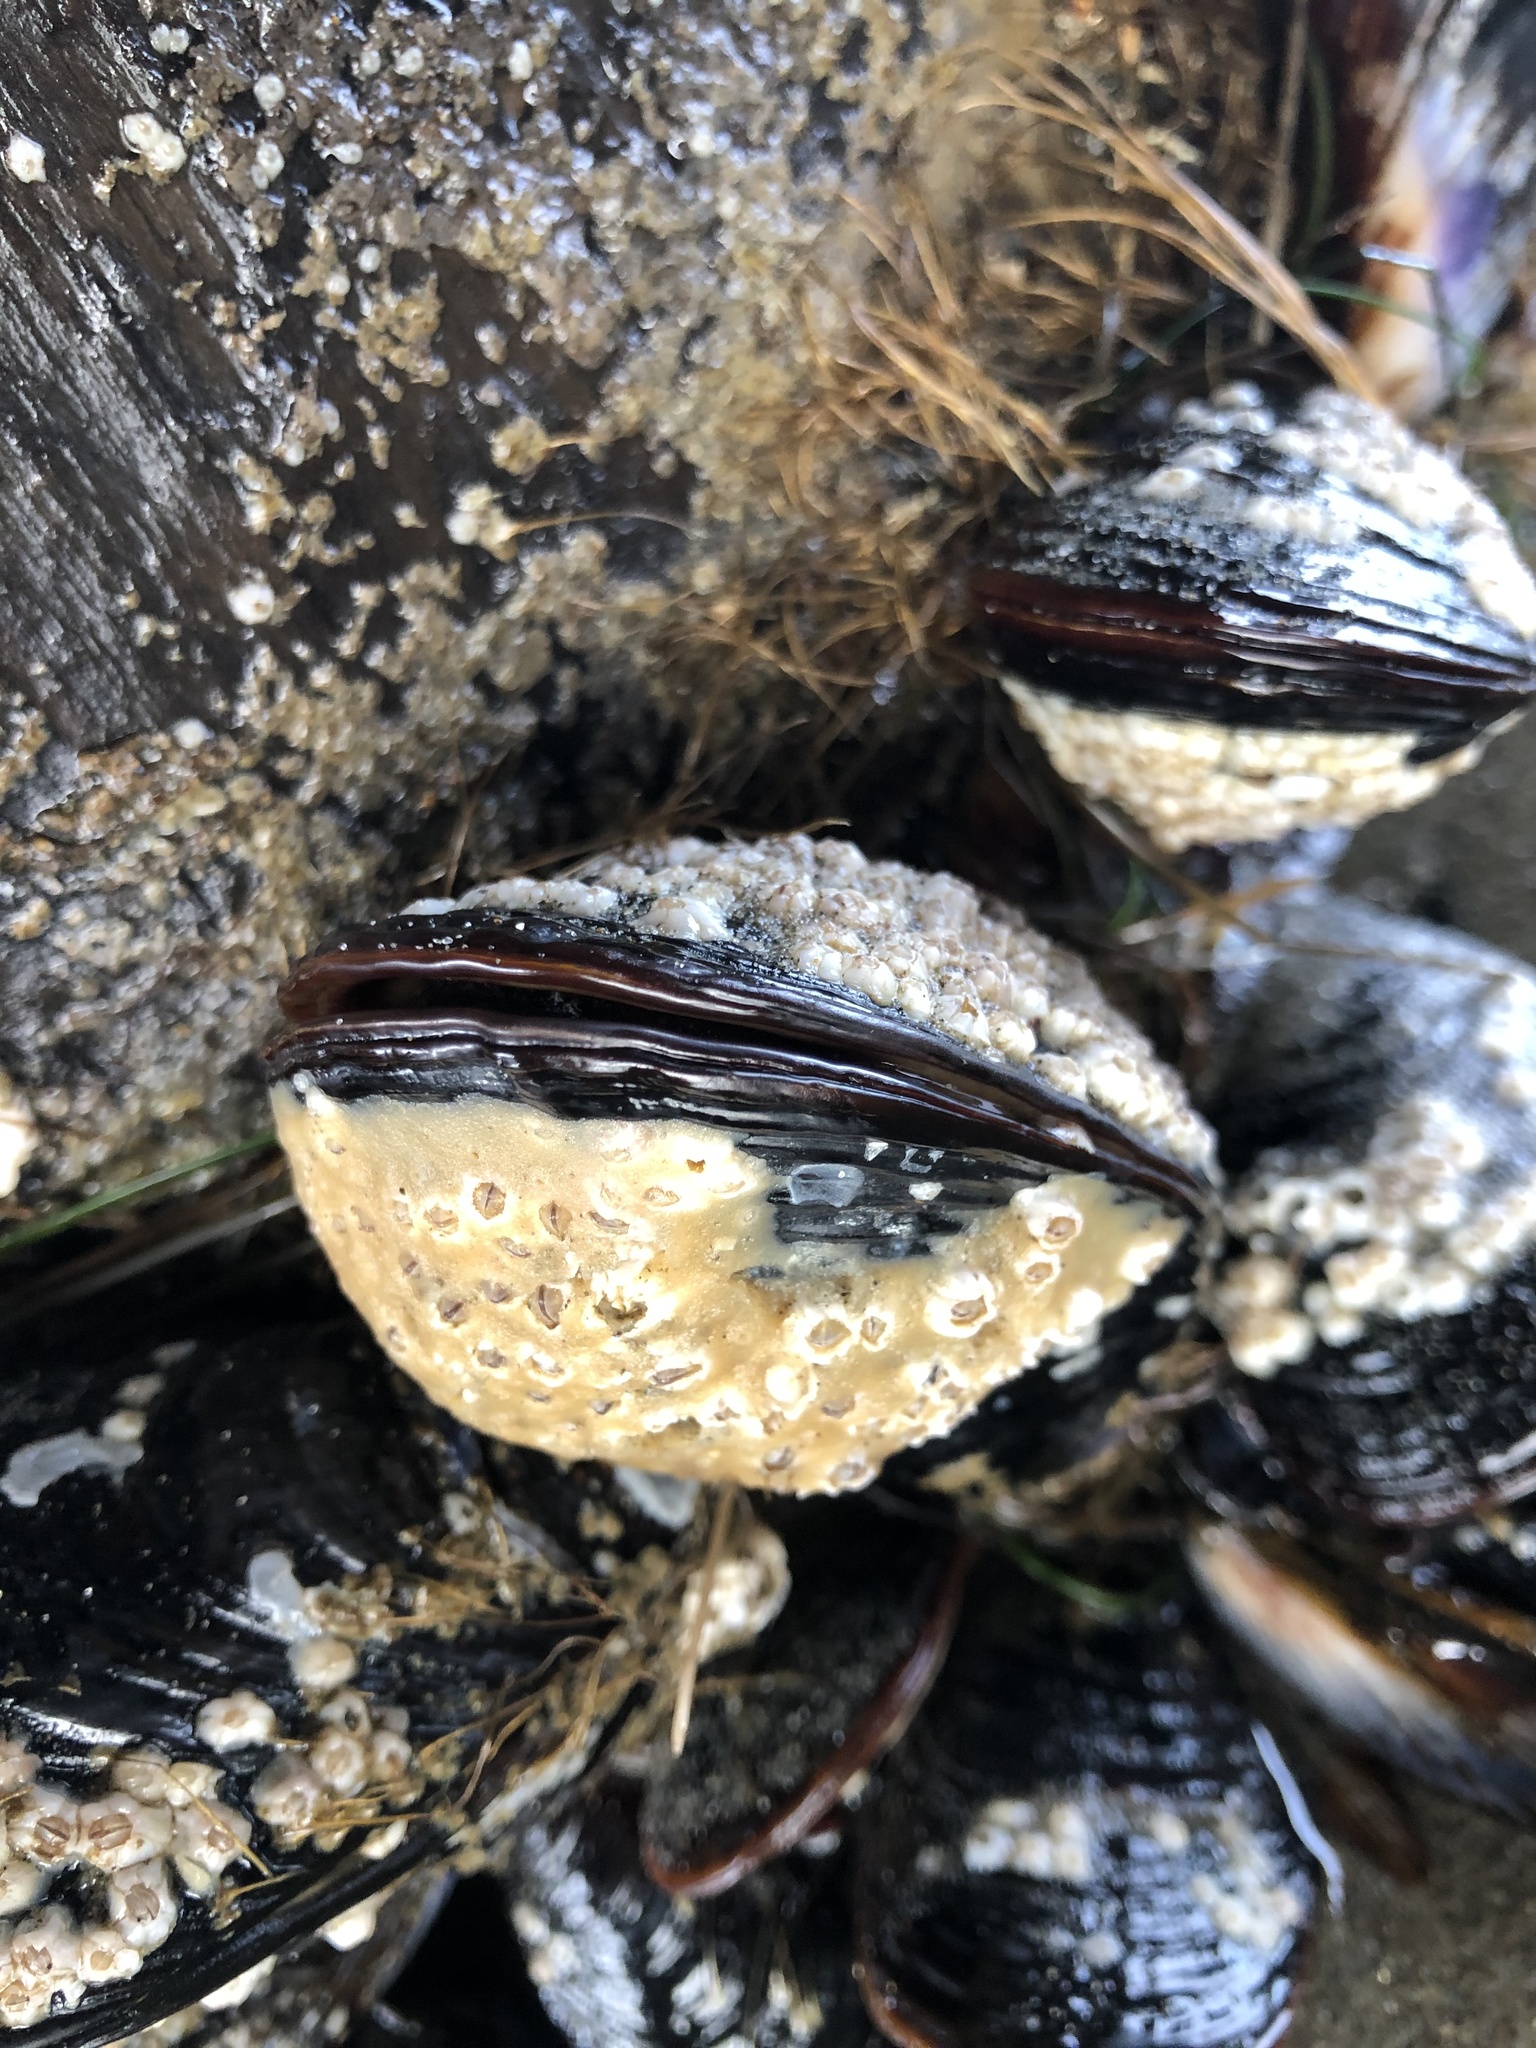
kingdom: Animalia
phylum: Mollusca
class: Bivalvia
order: Mytilida
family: Mytilidae
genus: Mytilus
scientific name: Mytilus californianus
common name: California mussel
